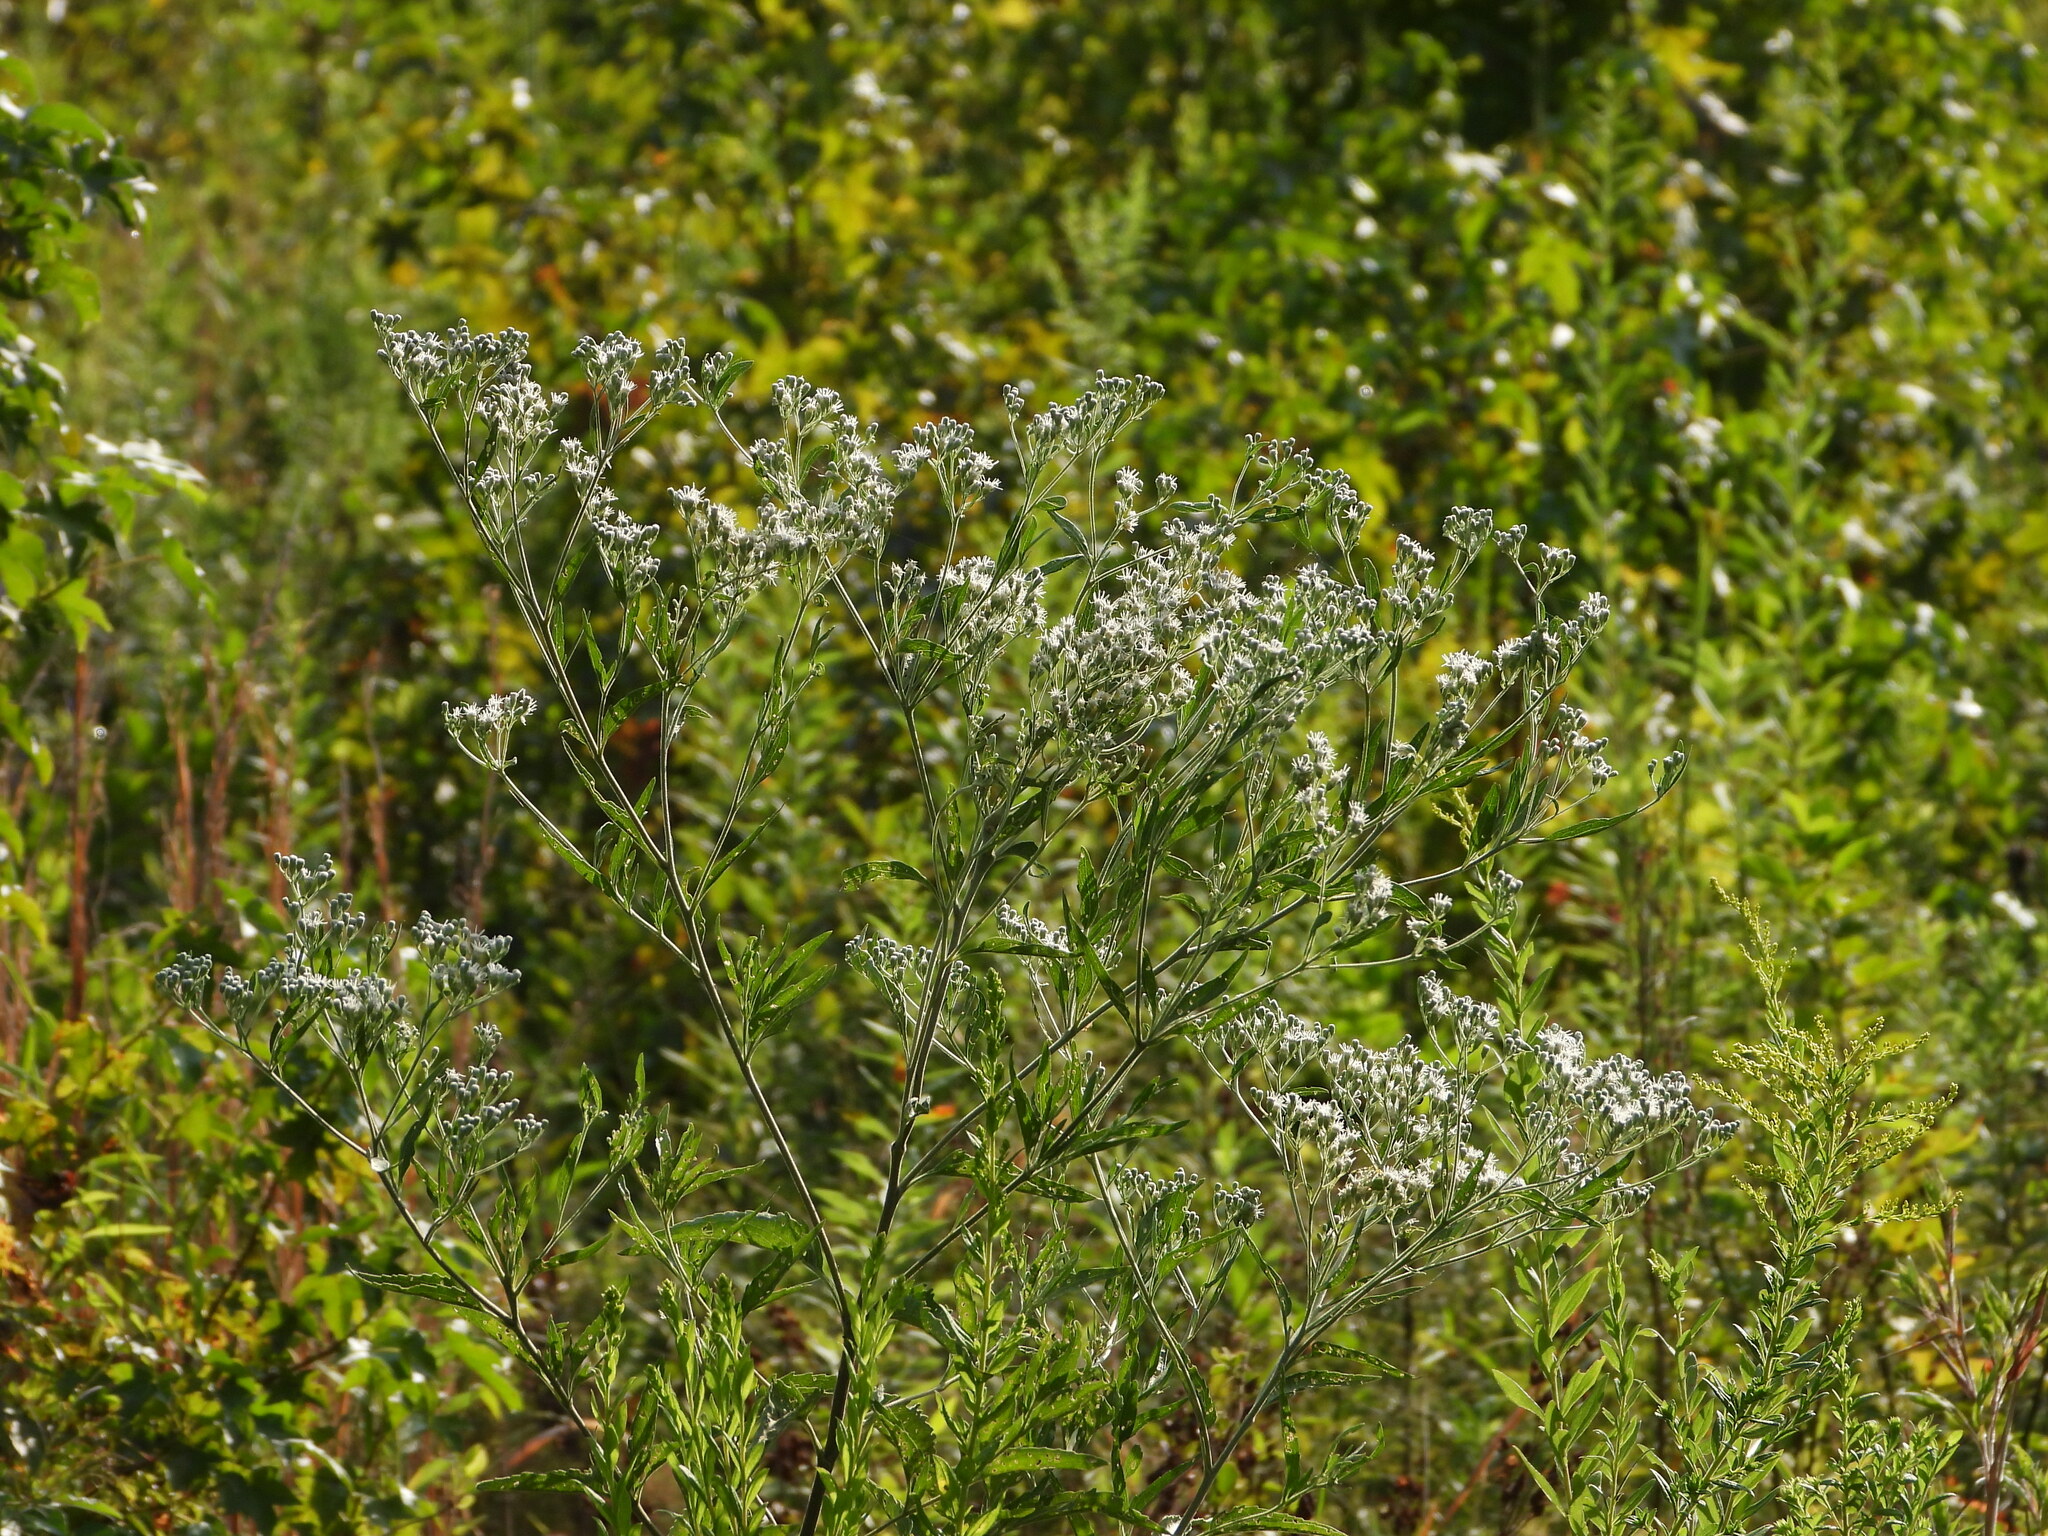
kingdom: Plantae
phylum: Tracheophyta
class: Magnoliopsida
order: Asterales
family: Asteraceae
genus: Eupatorium
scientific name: Eupatorium serotinum
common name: Late boneset
